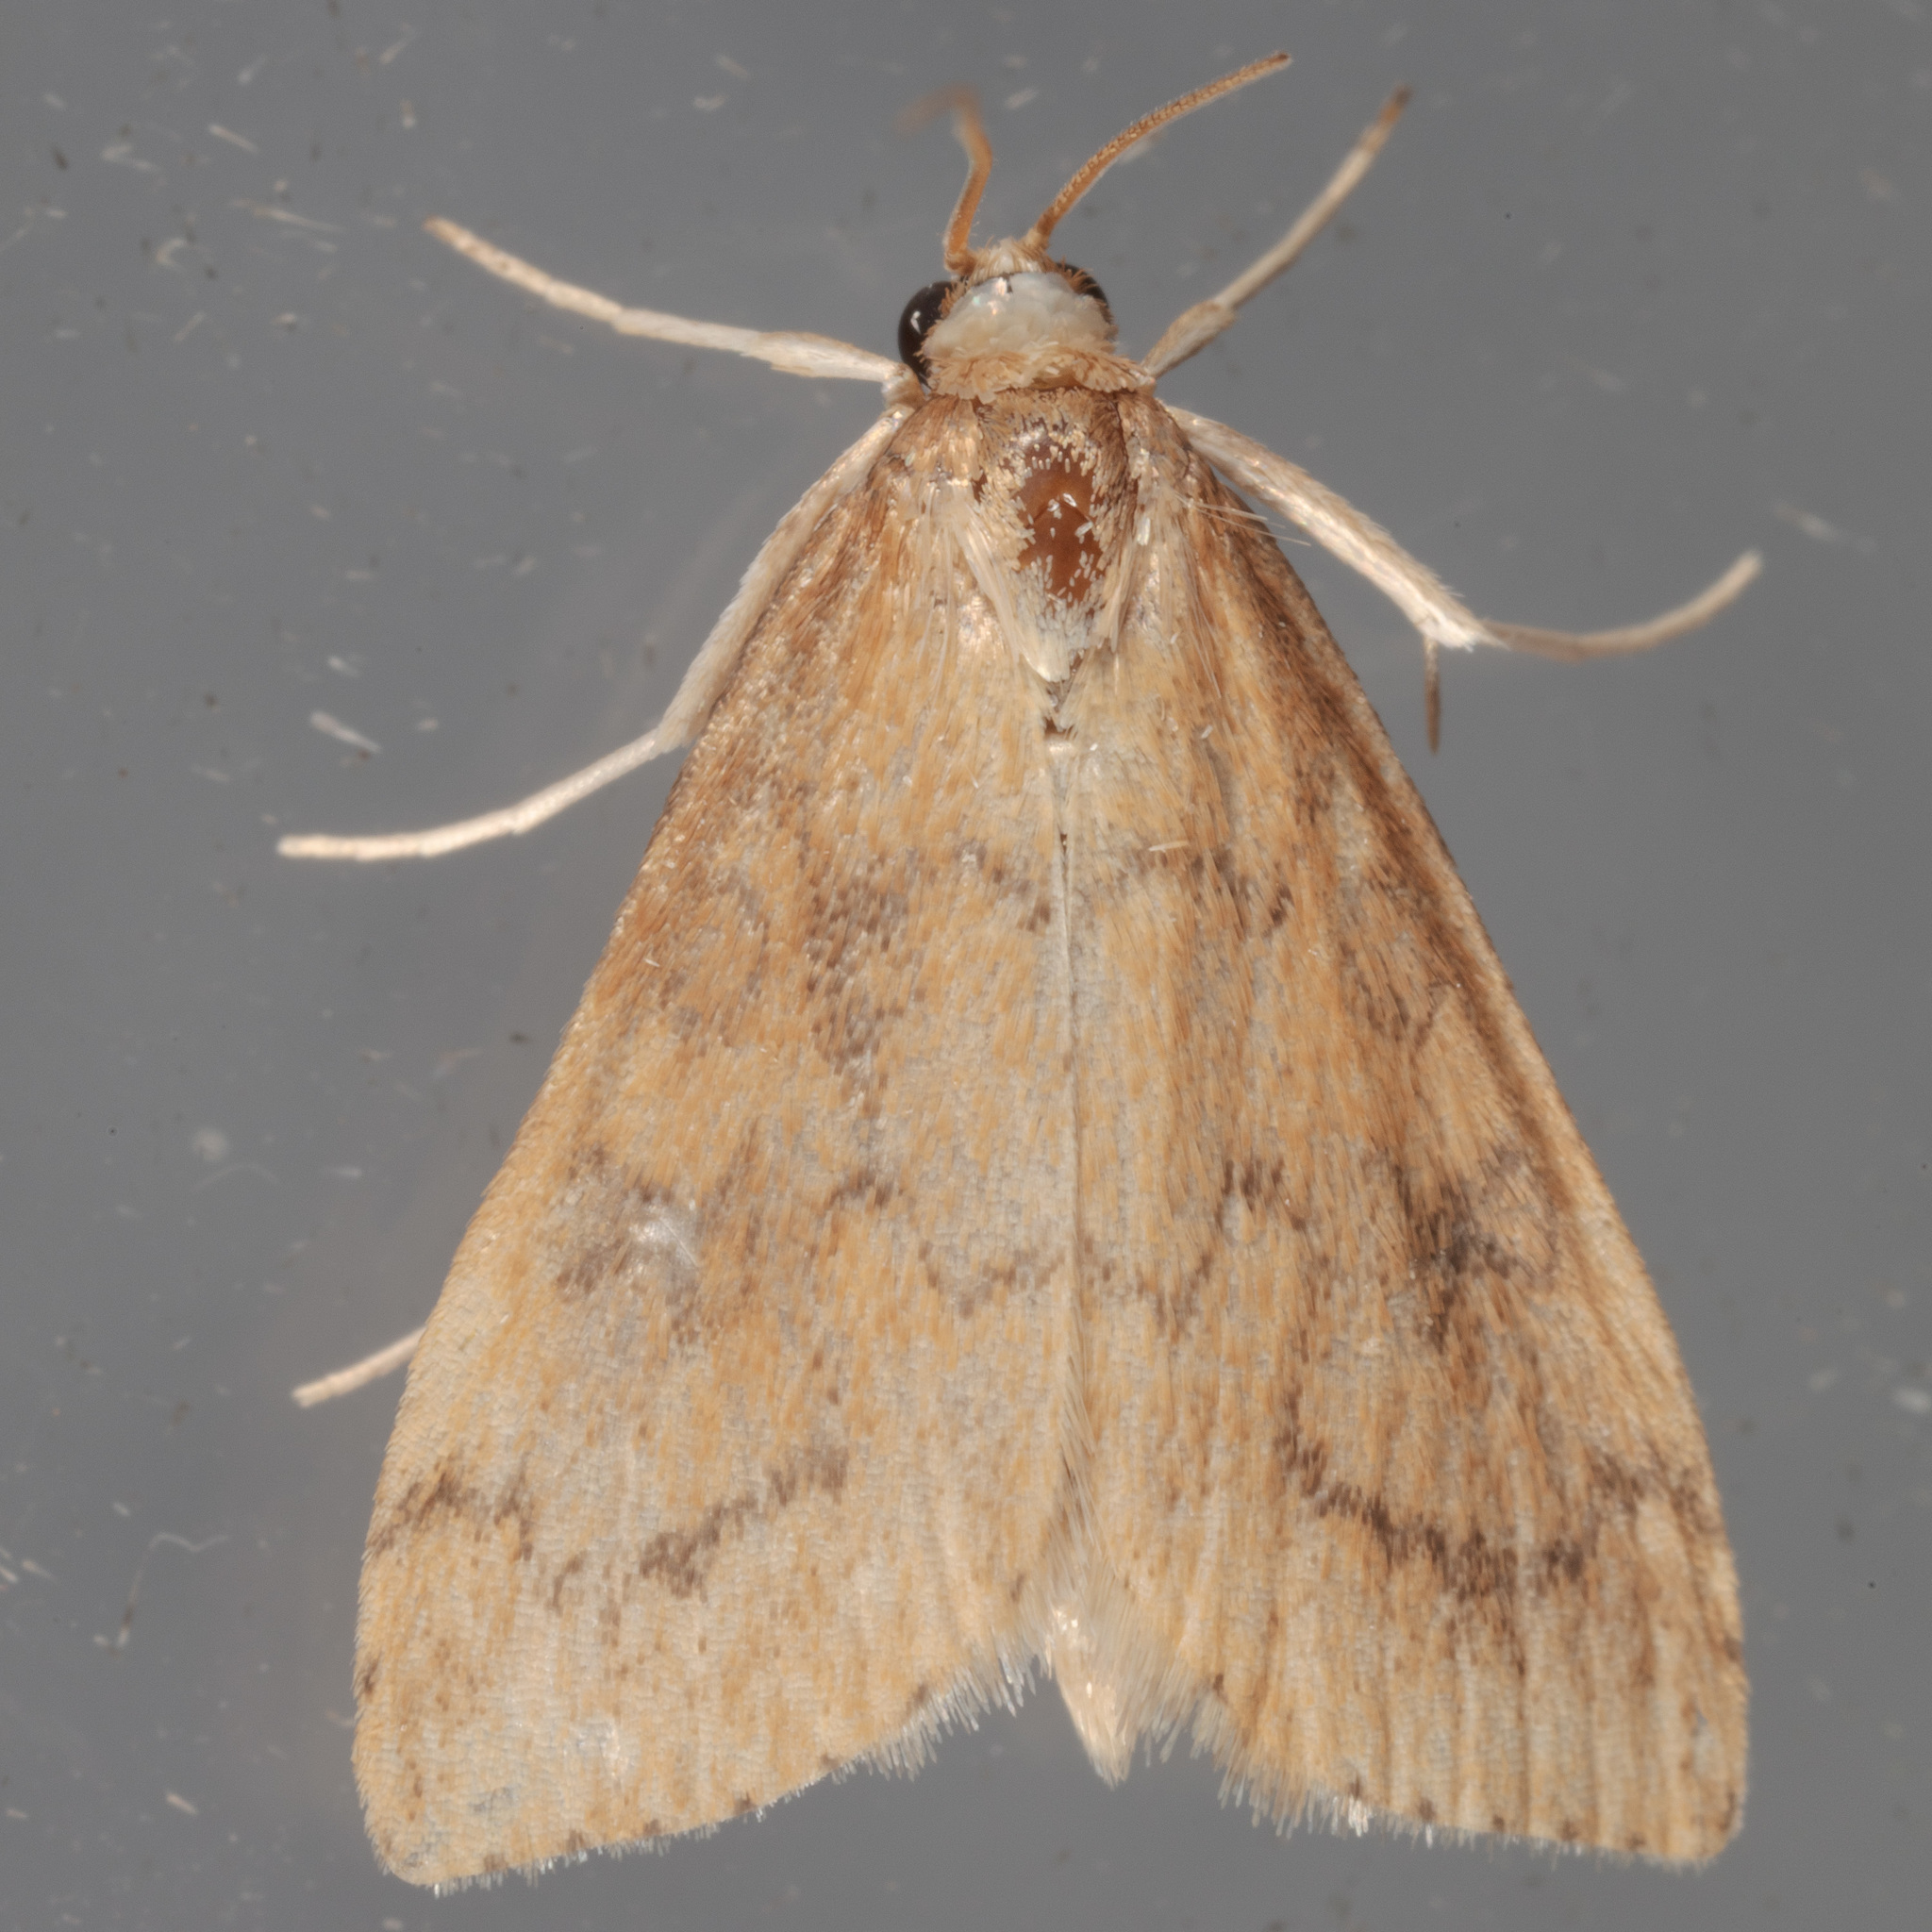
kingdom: Animalia
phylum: Arthropoda
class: Insecta
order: Lepidoptera
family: Crambidae
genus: Udea
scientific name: Udea rubigalis
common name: Celery leaftier moth
